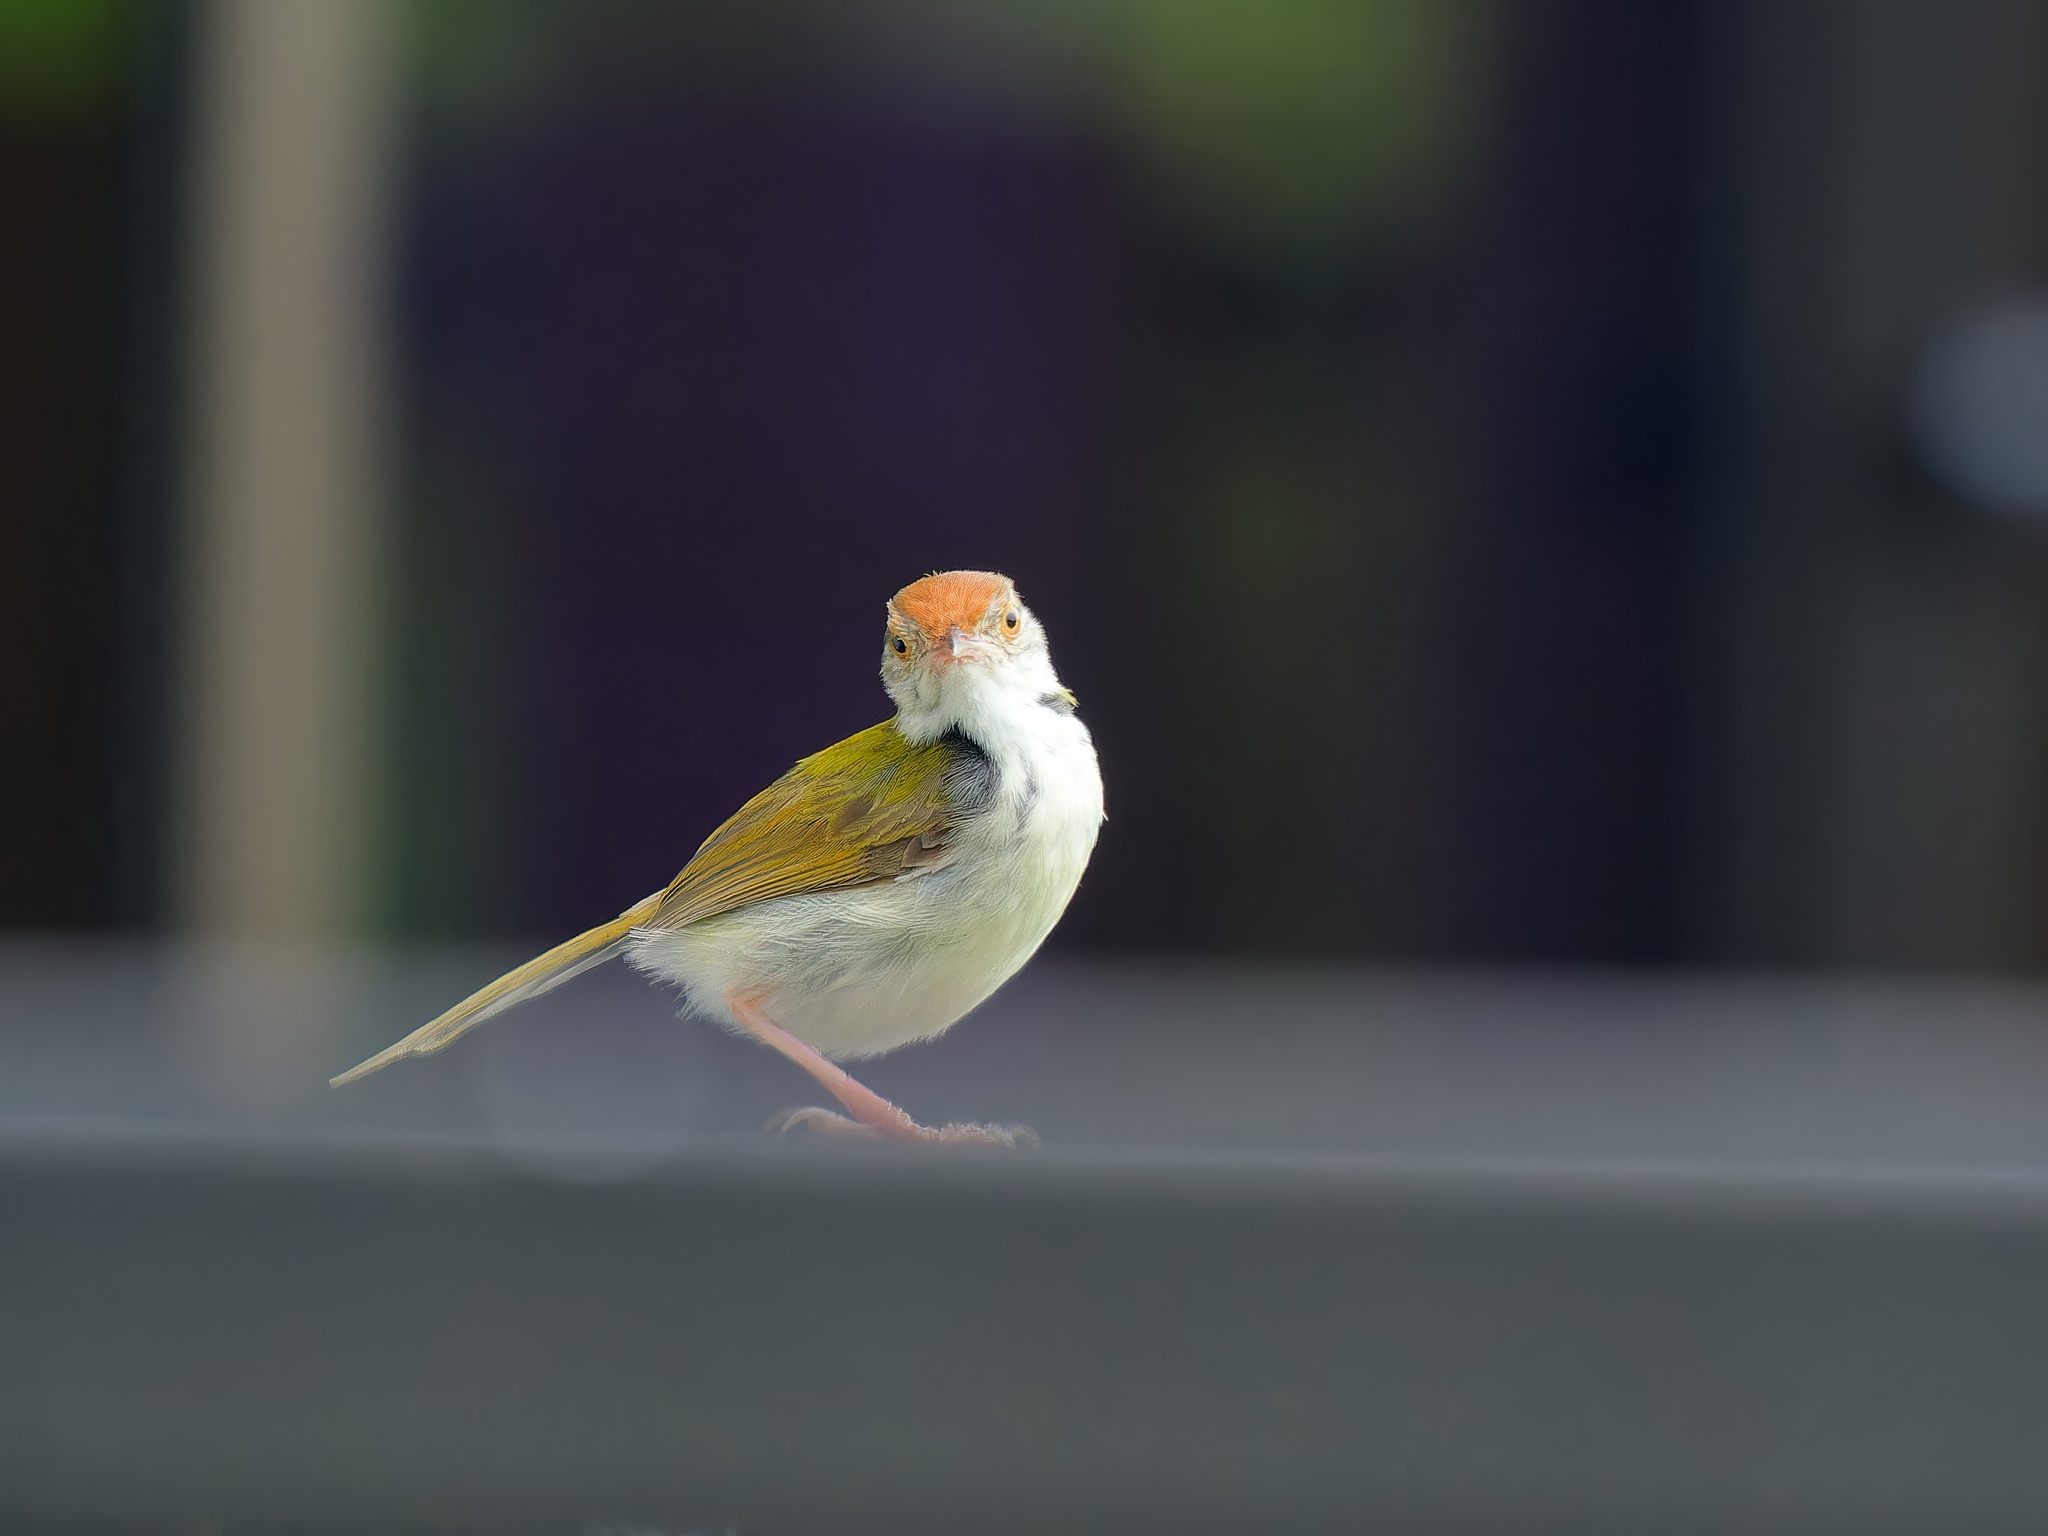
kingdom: Animalia
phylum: Chordata
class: Aves
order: Passeriformes
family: Cisticolidae
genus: Orthotomus
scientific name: Orthotomus sutorius
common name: Common tailorbird
